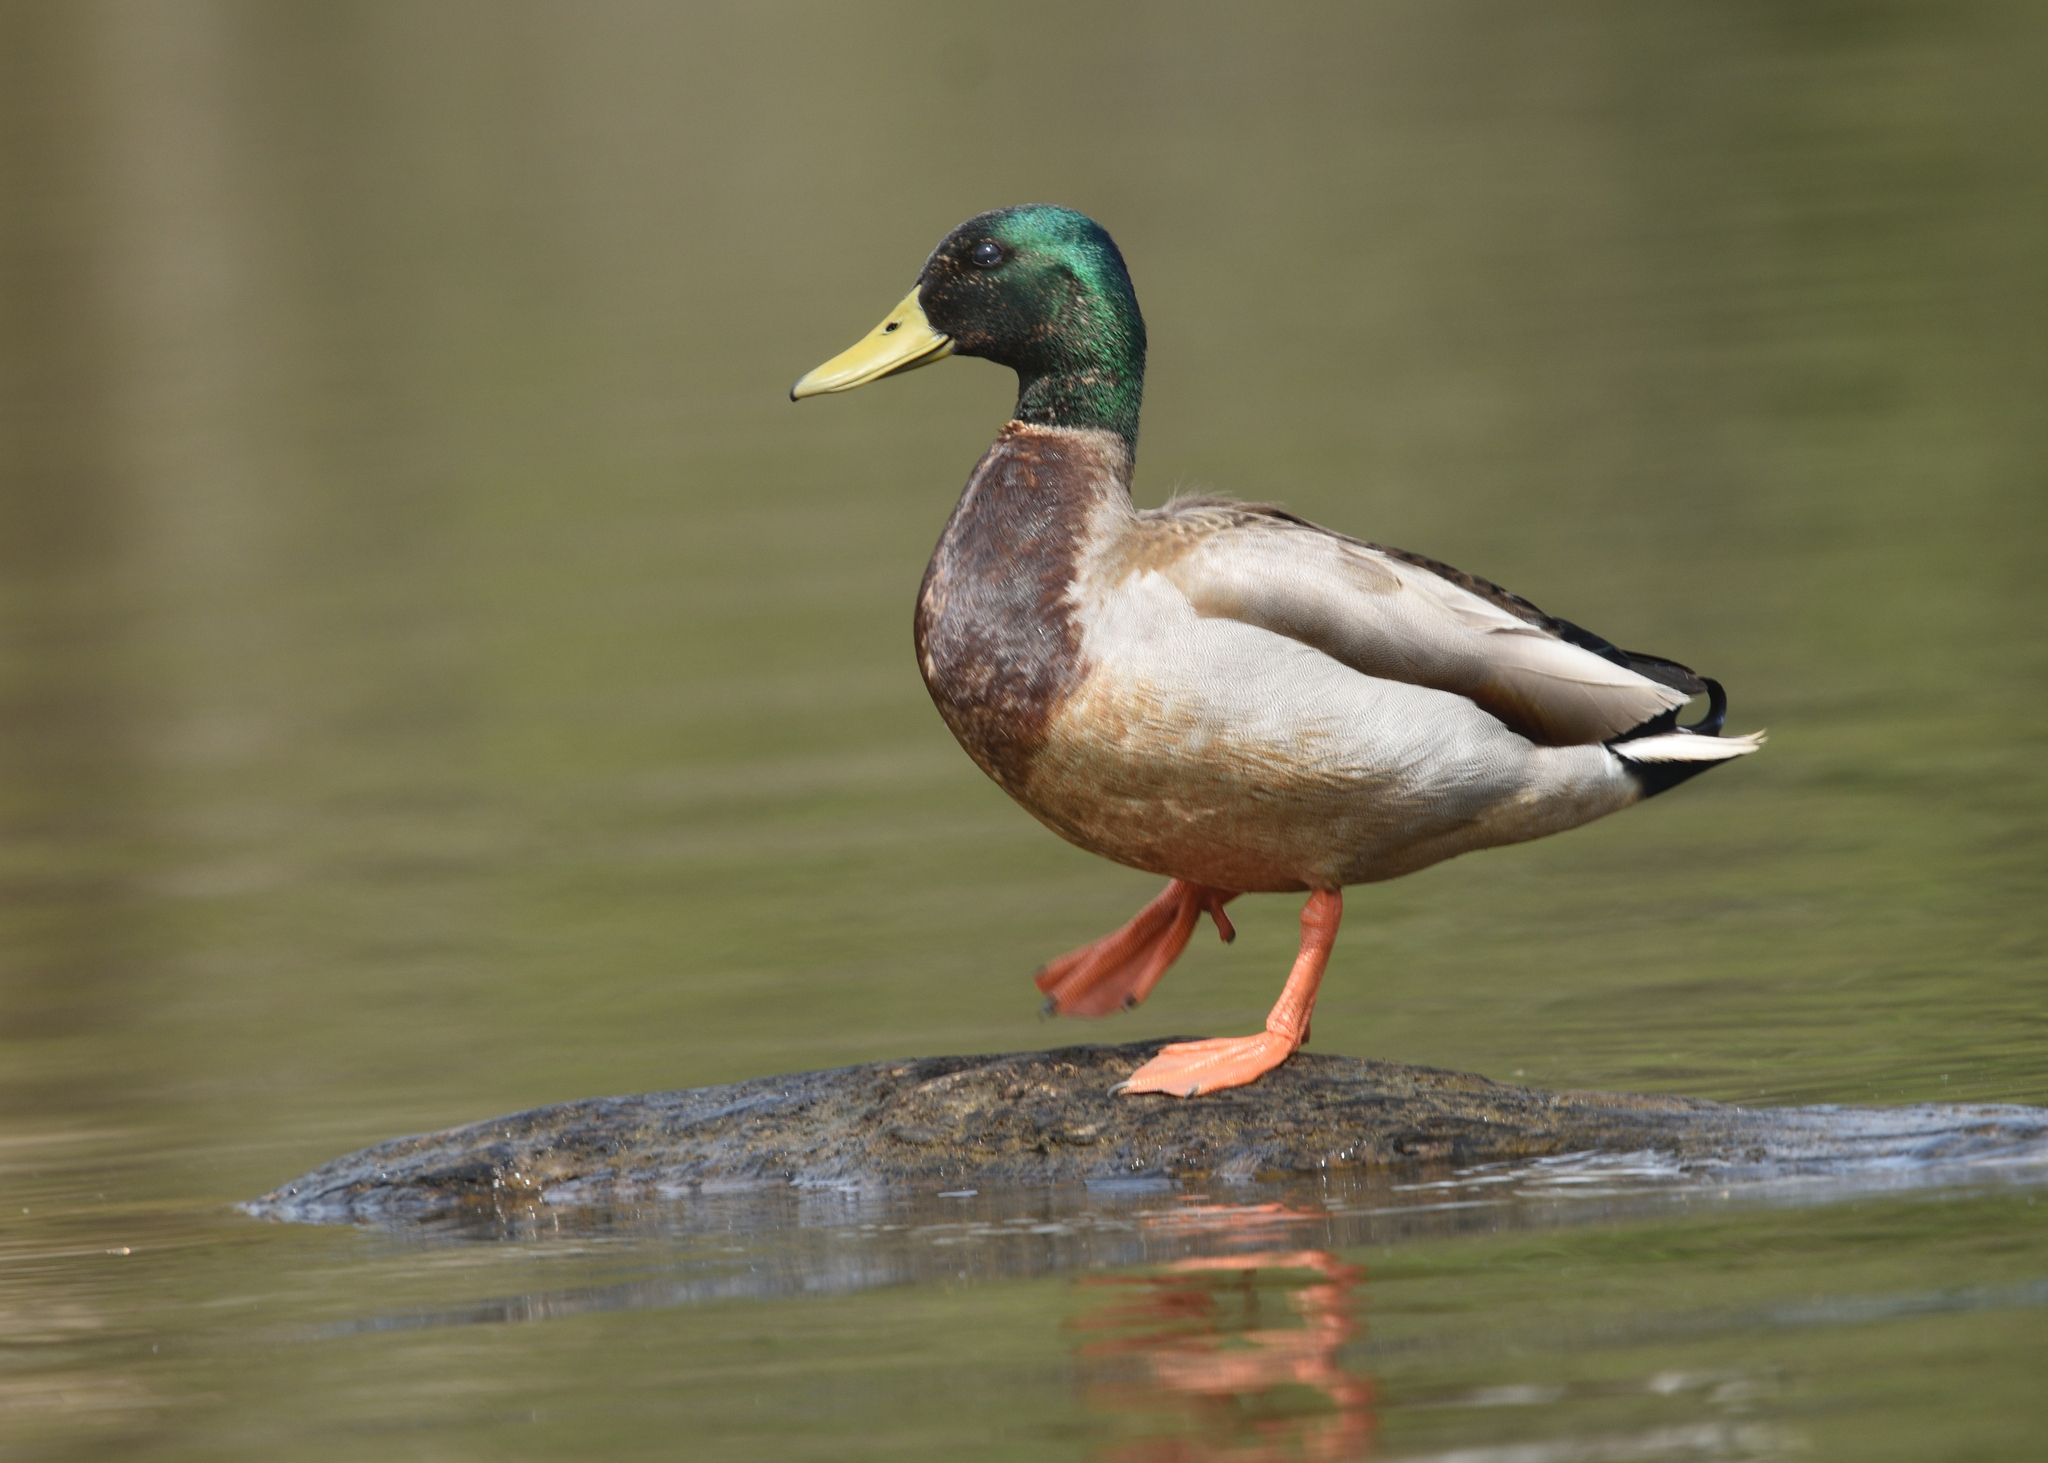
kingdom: Animalia
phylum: Chordata
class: Aves
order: Anseriformes
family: Anatidae
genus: Anas
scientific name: Anas platyrhynchos
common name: Mallard
